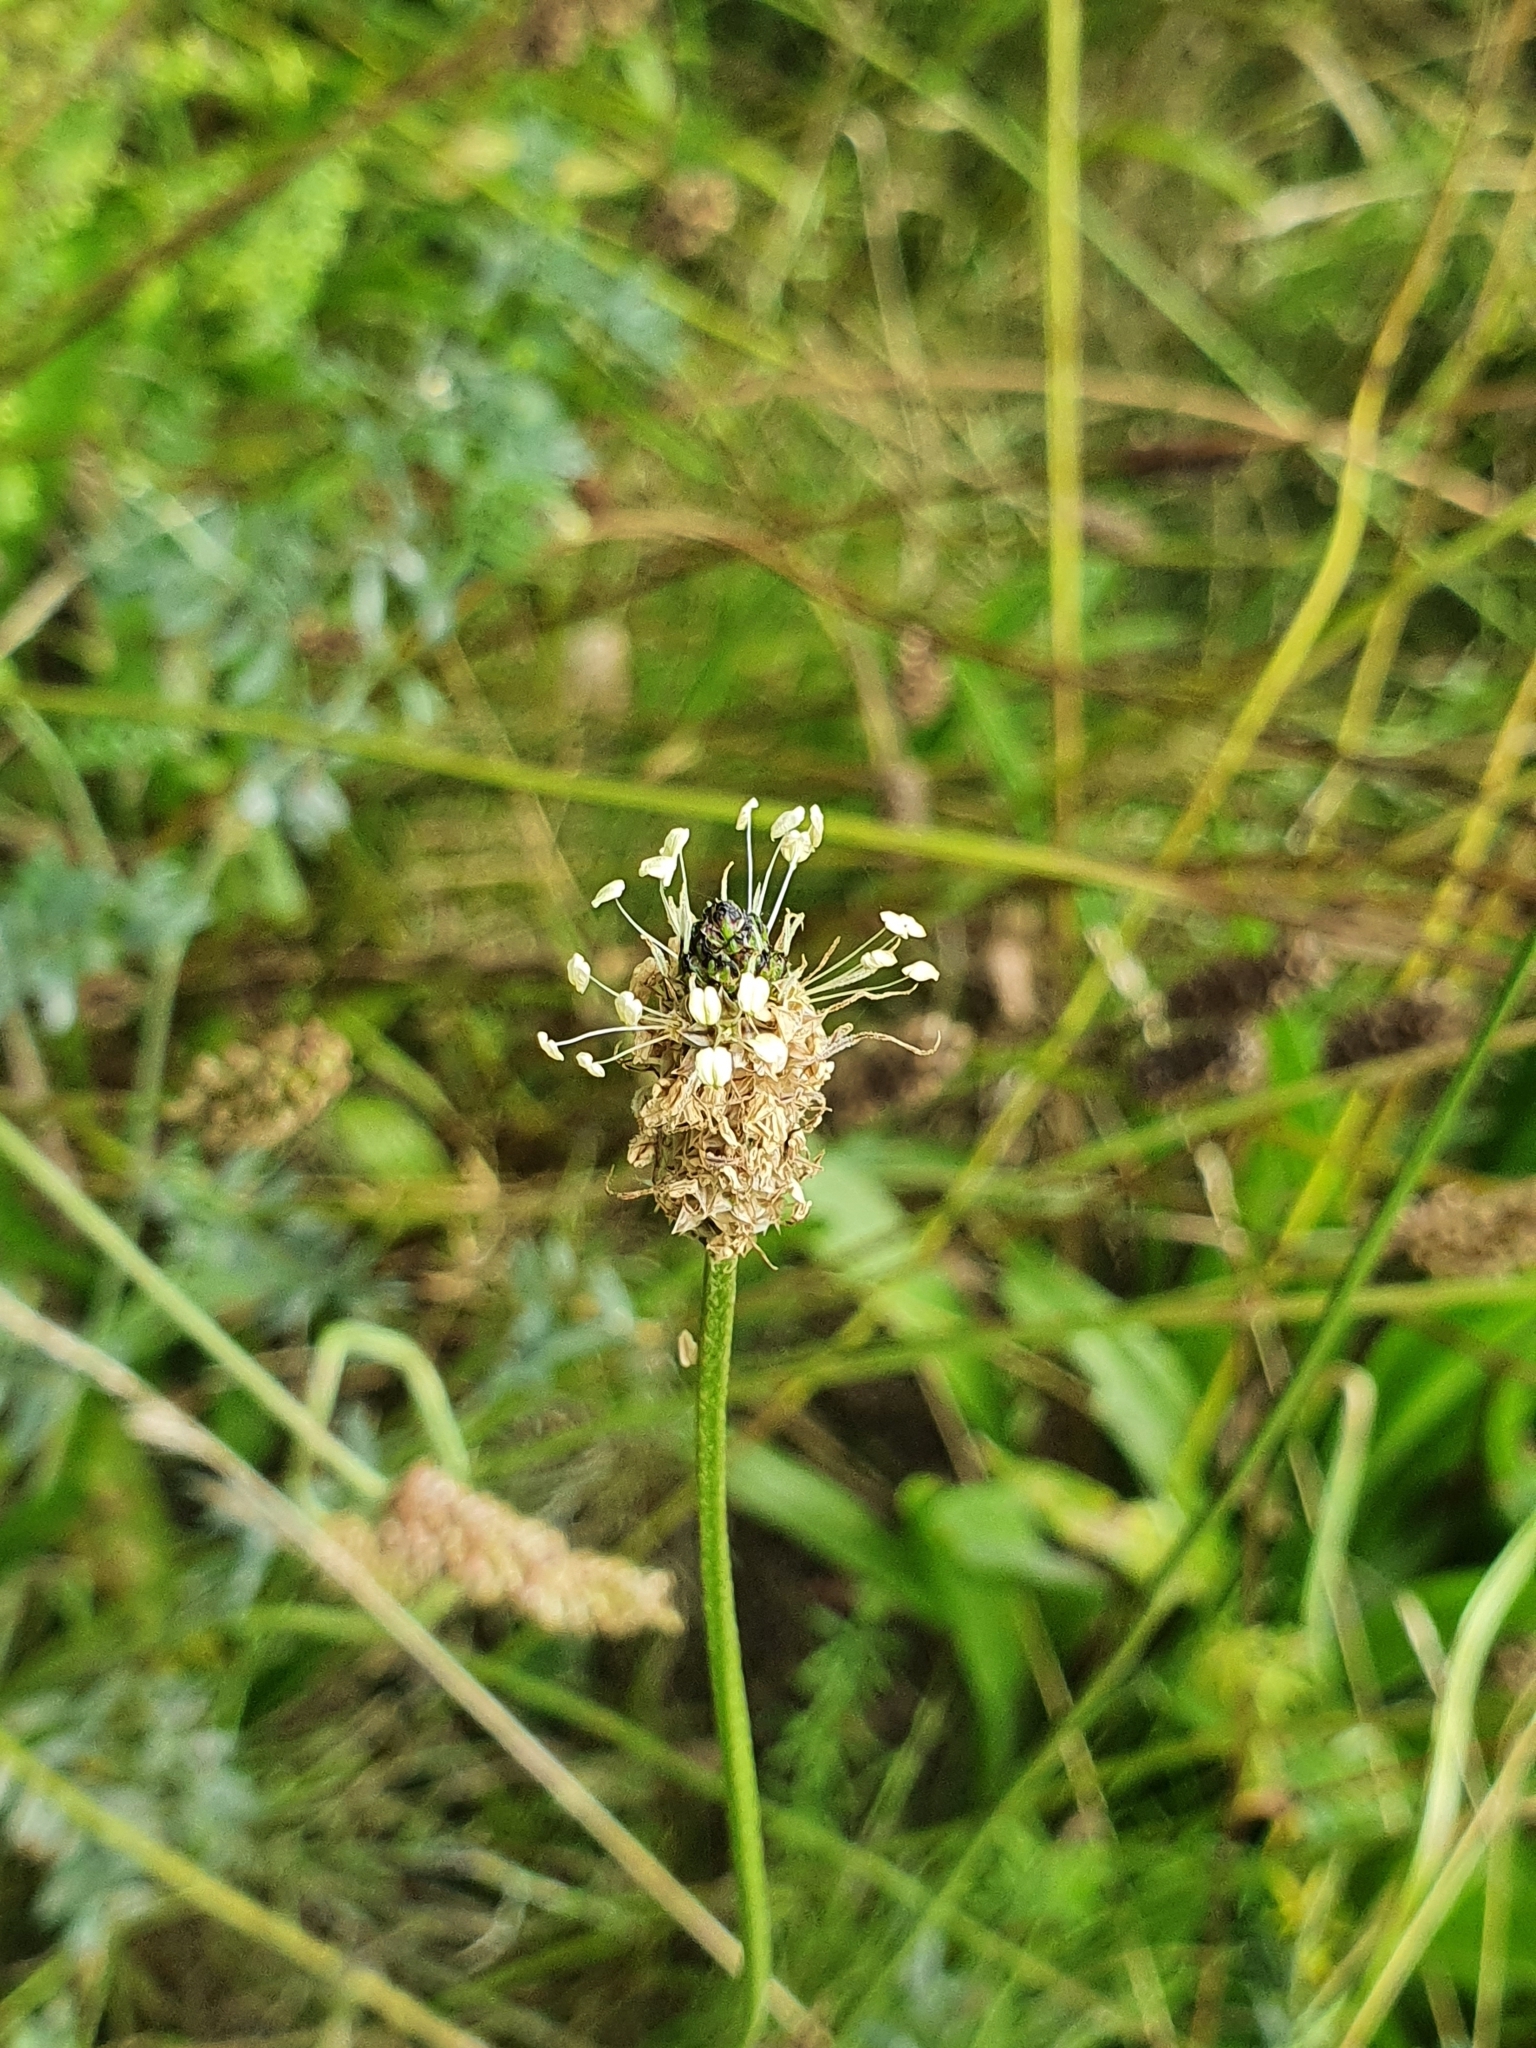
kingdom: Plantae
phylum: Tracheophyta
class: Magnoliopsida
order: Lamiales
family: Plantaginaceae
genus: Plantago
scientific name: Plantago lanceolata
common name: Ribwort plantain
